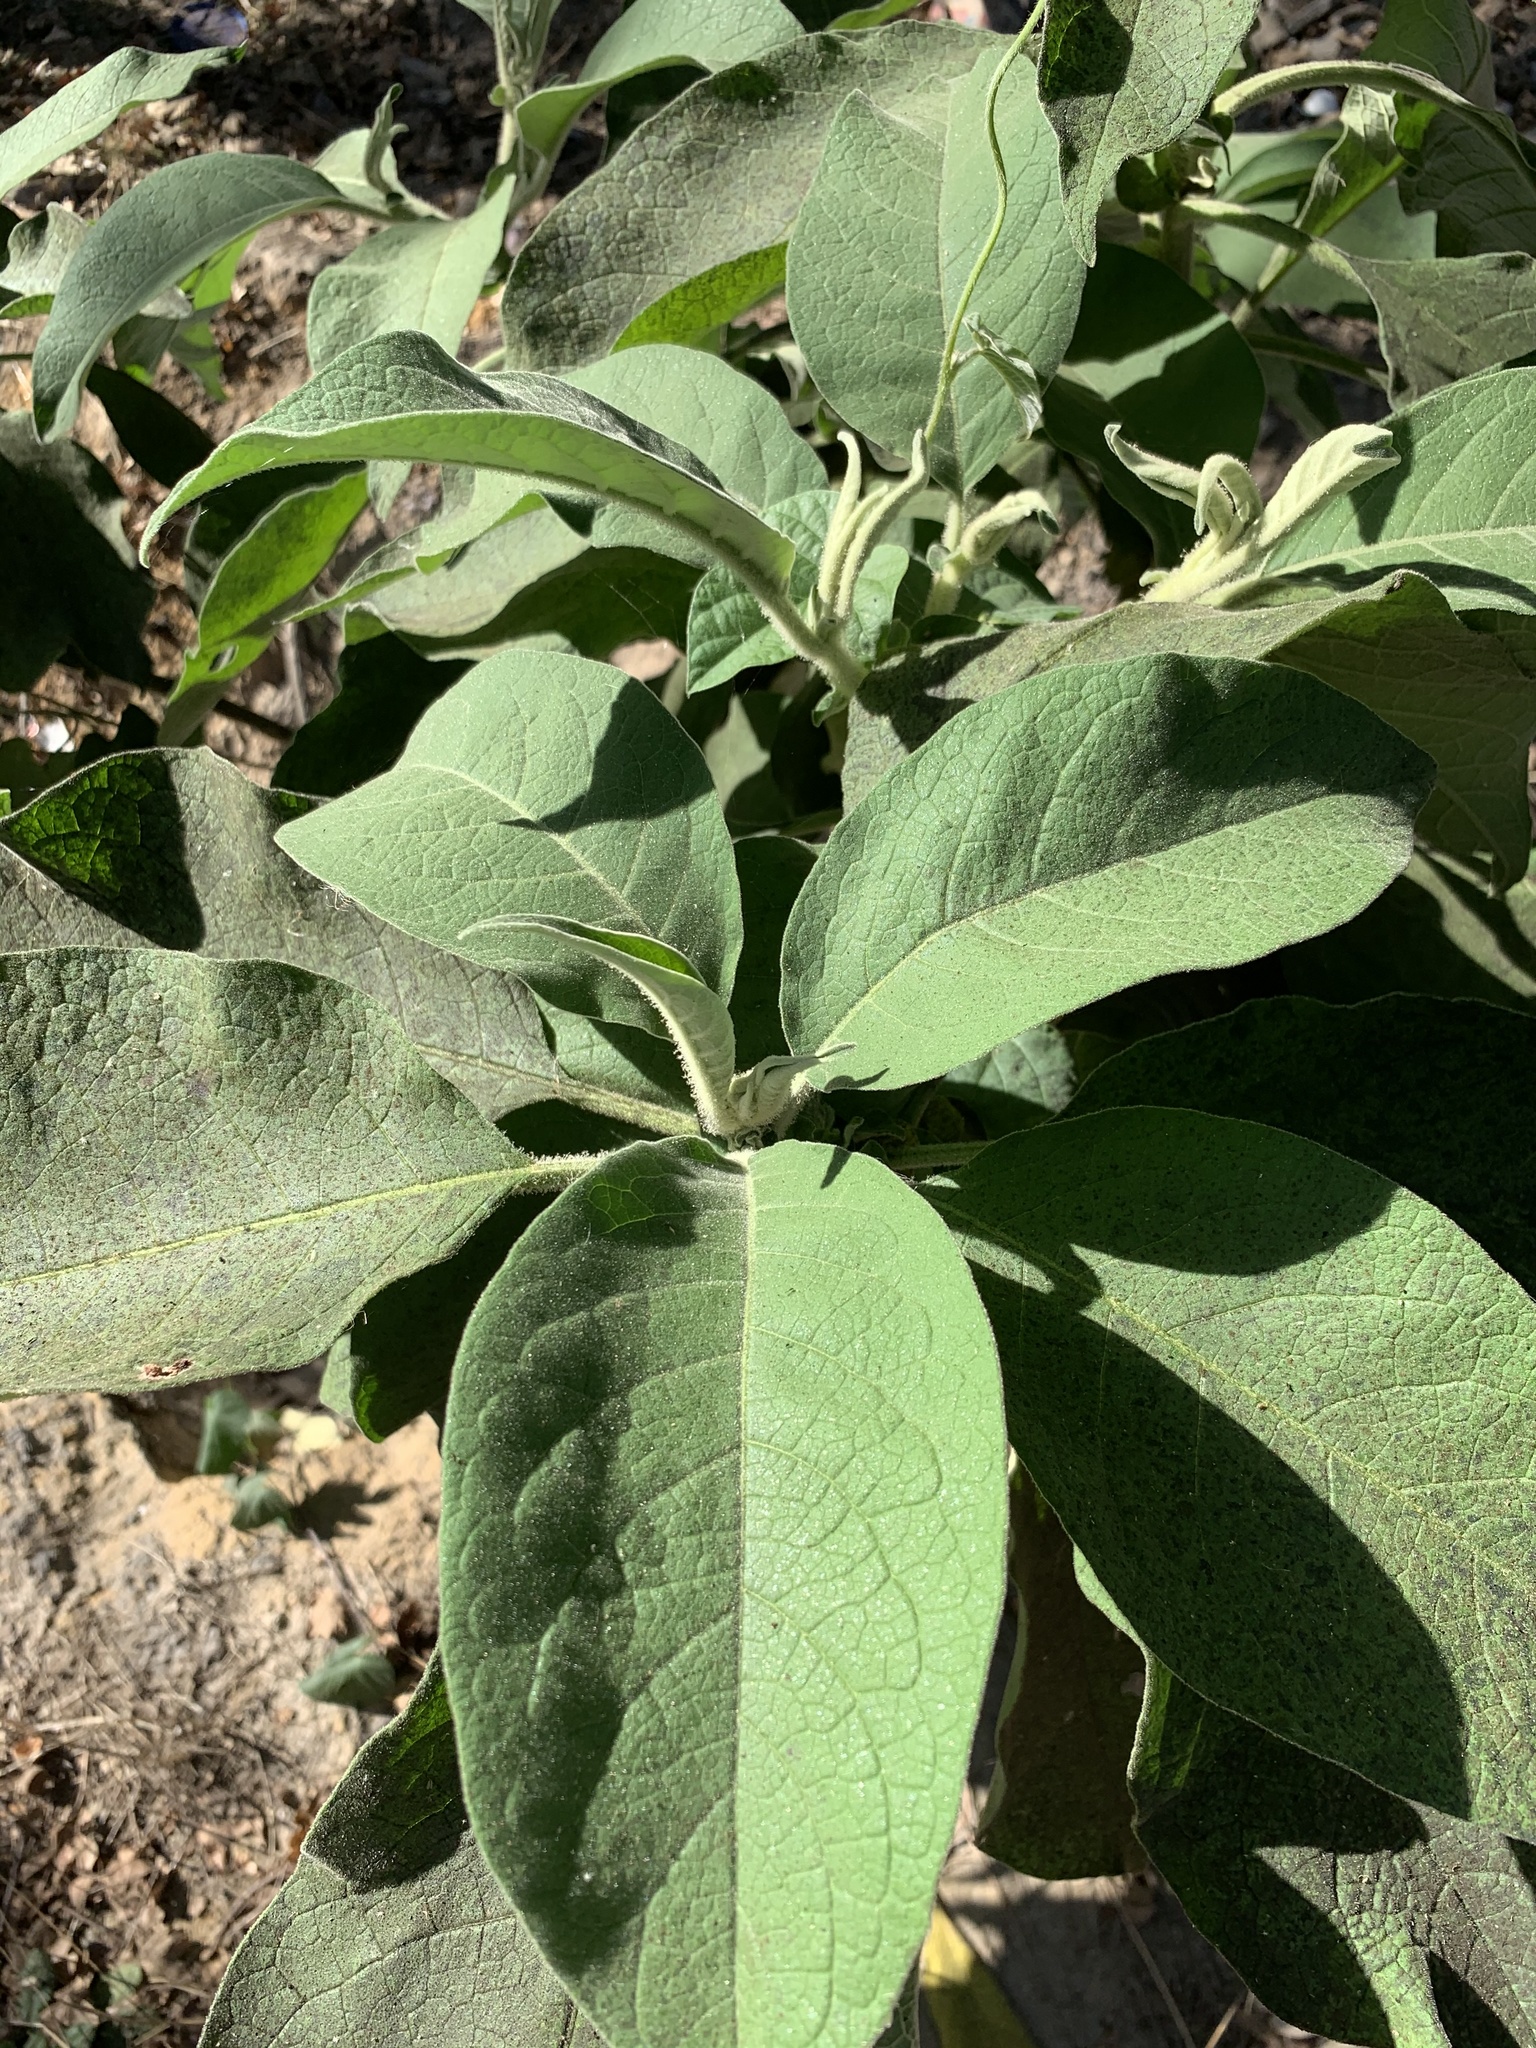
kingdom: Plantae
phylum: Tracheophyta
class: Magnoliopsida
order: Solanales
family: Solanaceae
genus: Solanum
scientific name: Solanum mauritianum
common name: Earleaf nightshade
